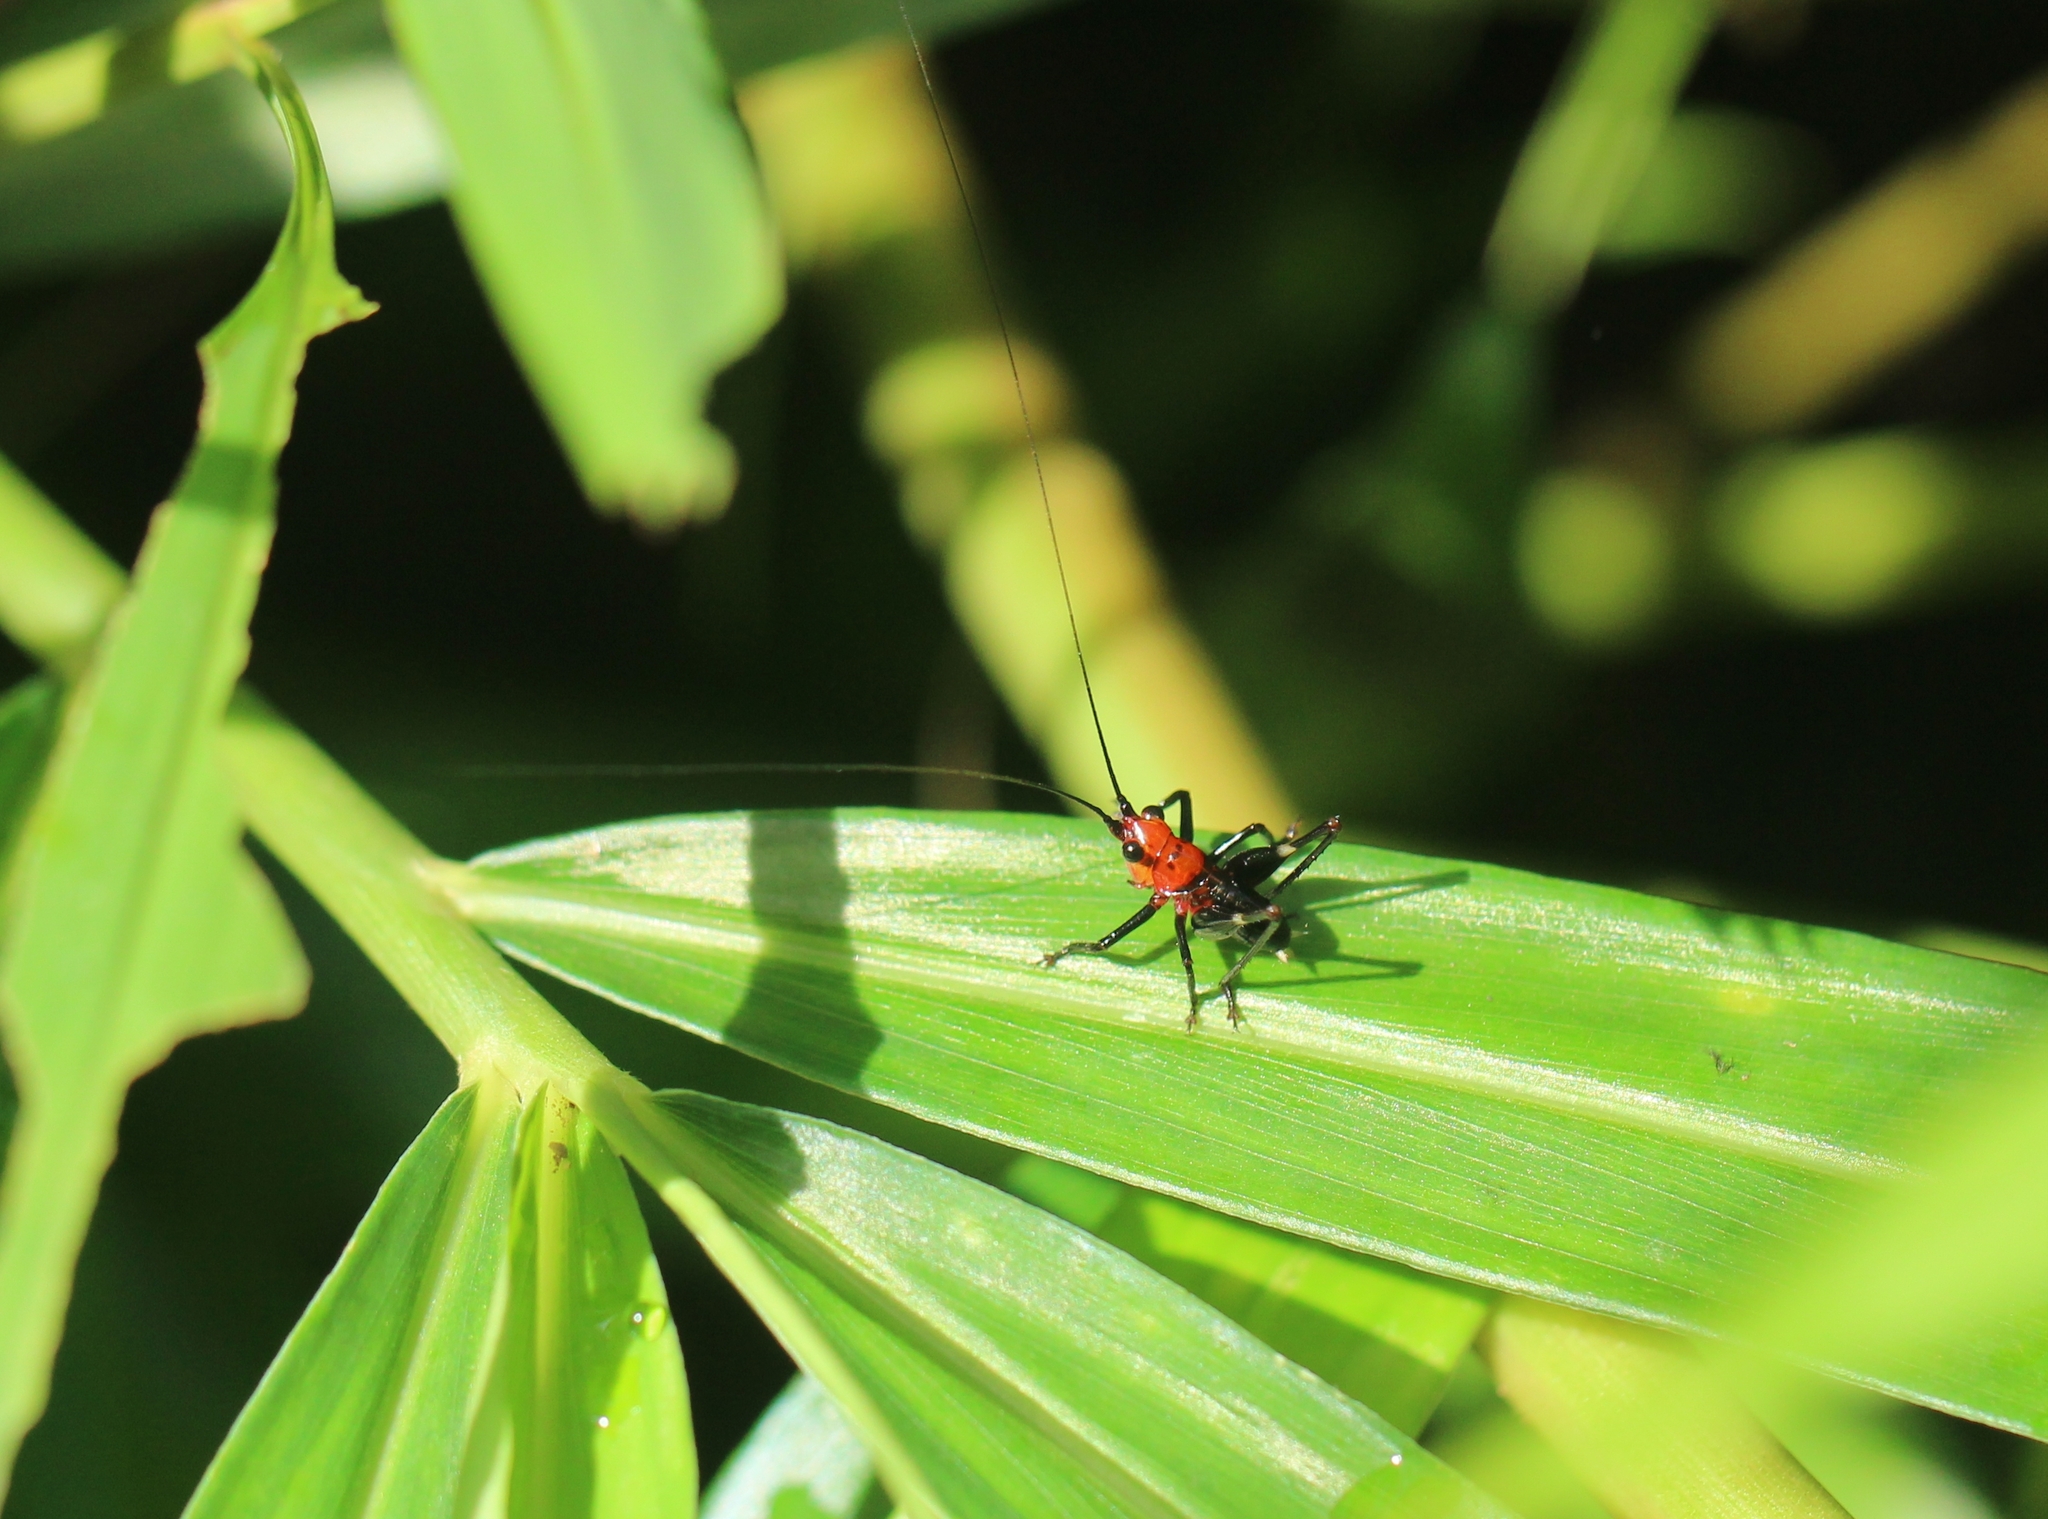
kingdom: Animalia
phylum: Arthropoda
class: Insecta
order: Orthoptera
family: Tettigoniidae
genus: Conocephalus
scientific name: Conocephalus melaenus
